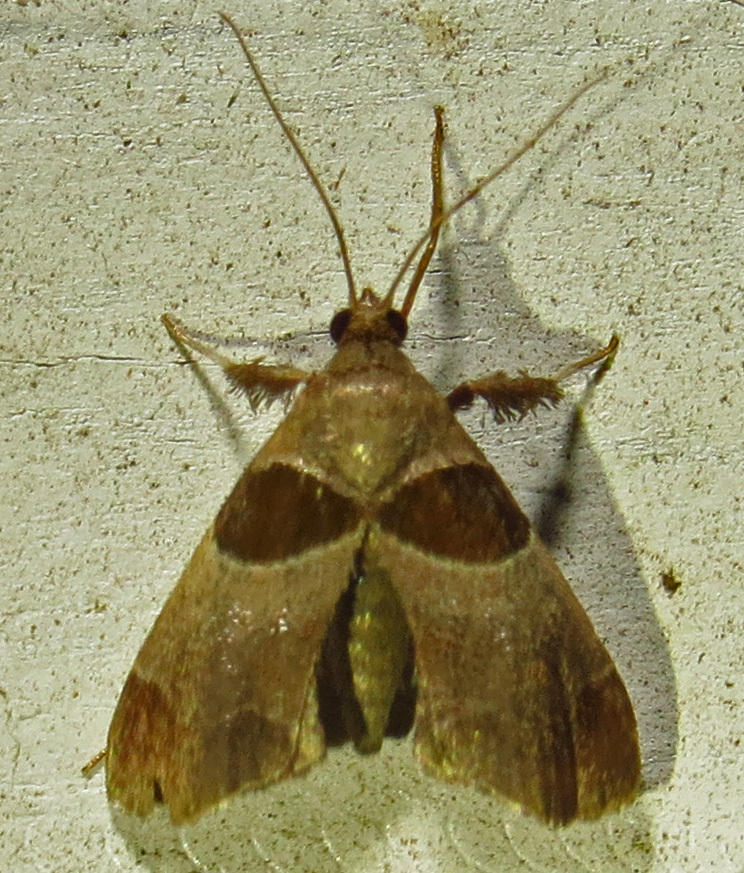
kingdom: Animalia
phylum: Arthropoda
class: Insecta
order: Lepidoptera
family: Pyralidae
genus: Tosale
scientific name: Tosale oviplagalis
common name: Dimorphic tosale moth
